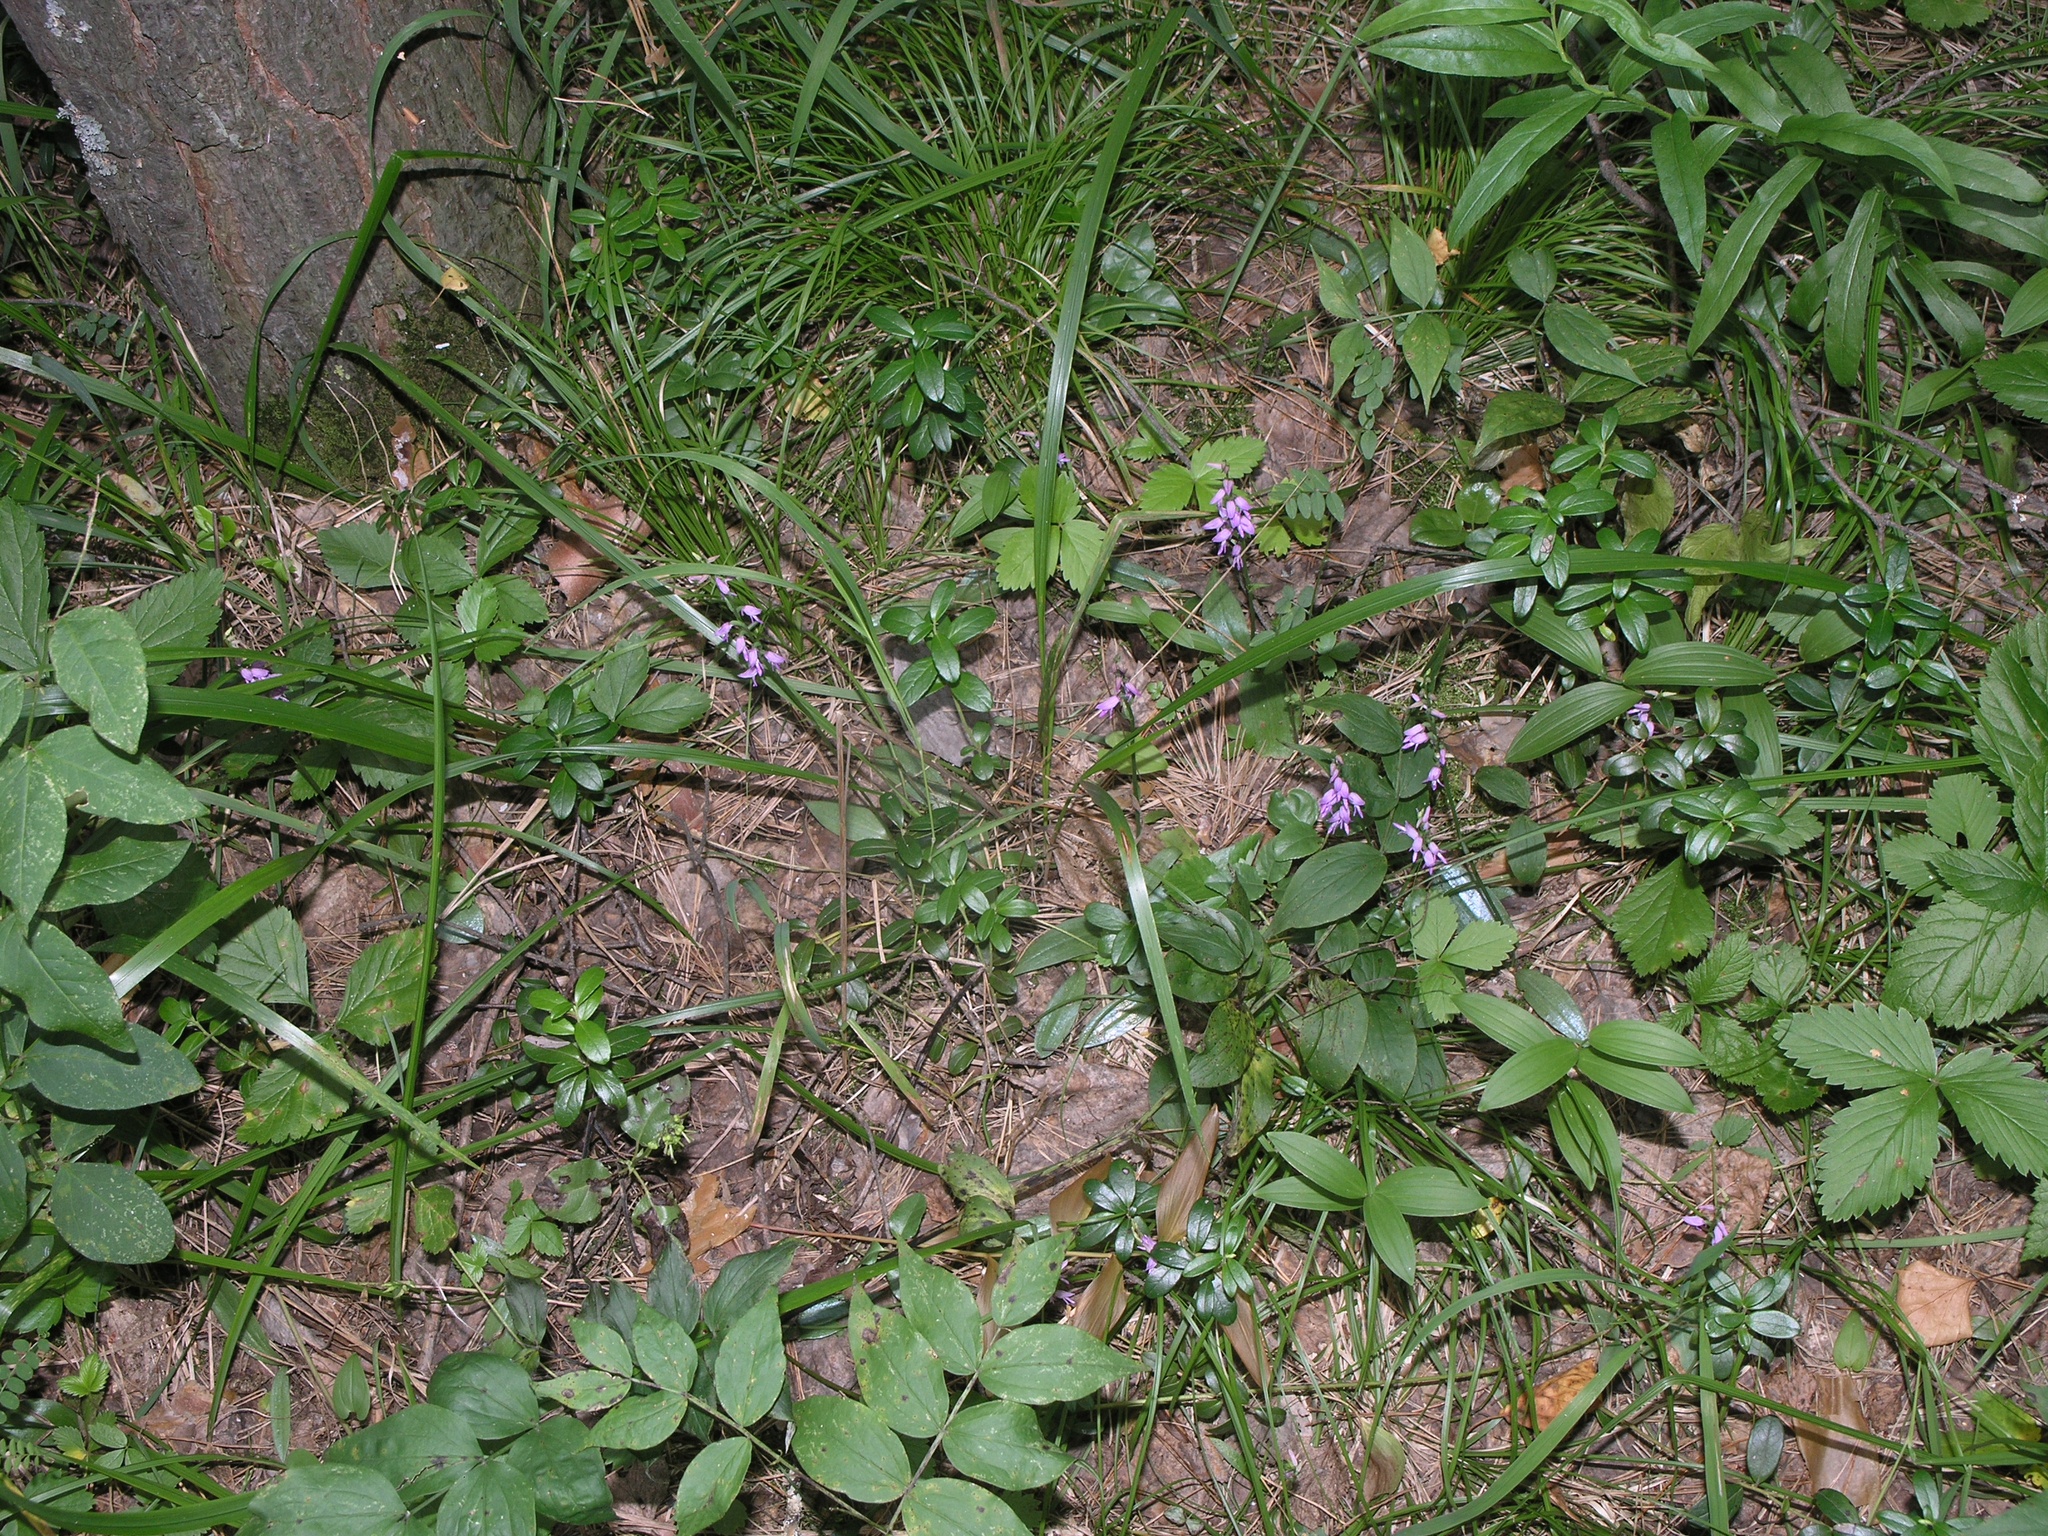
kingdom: Plantae
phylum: Tracheophyta
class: Liliopsida
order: Asparagales
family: Orchidaceae
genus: Hemipilia
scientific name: Hemipilia cucullata
